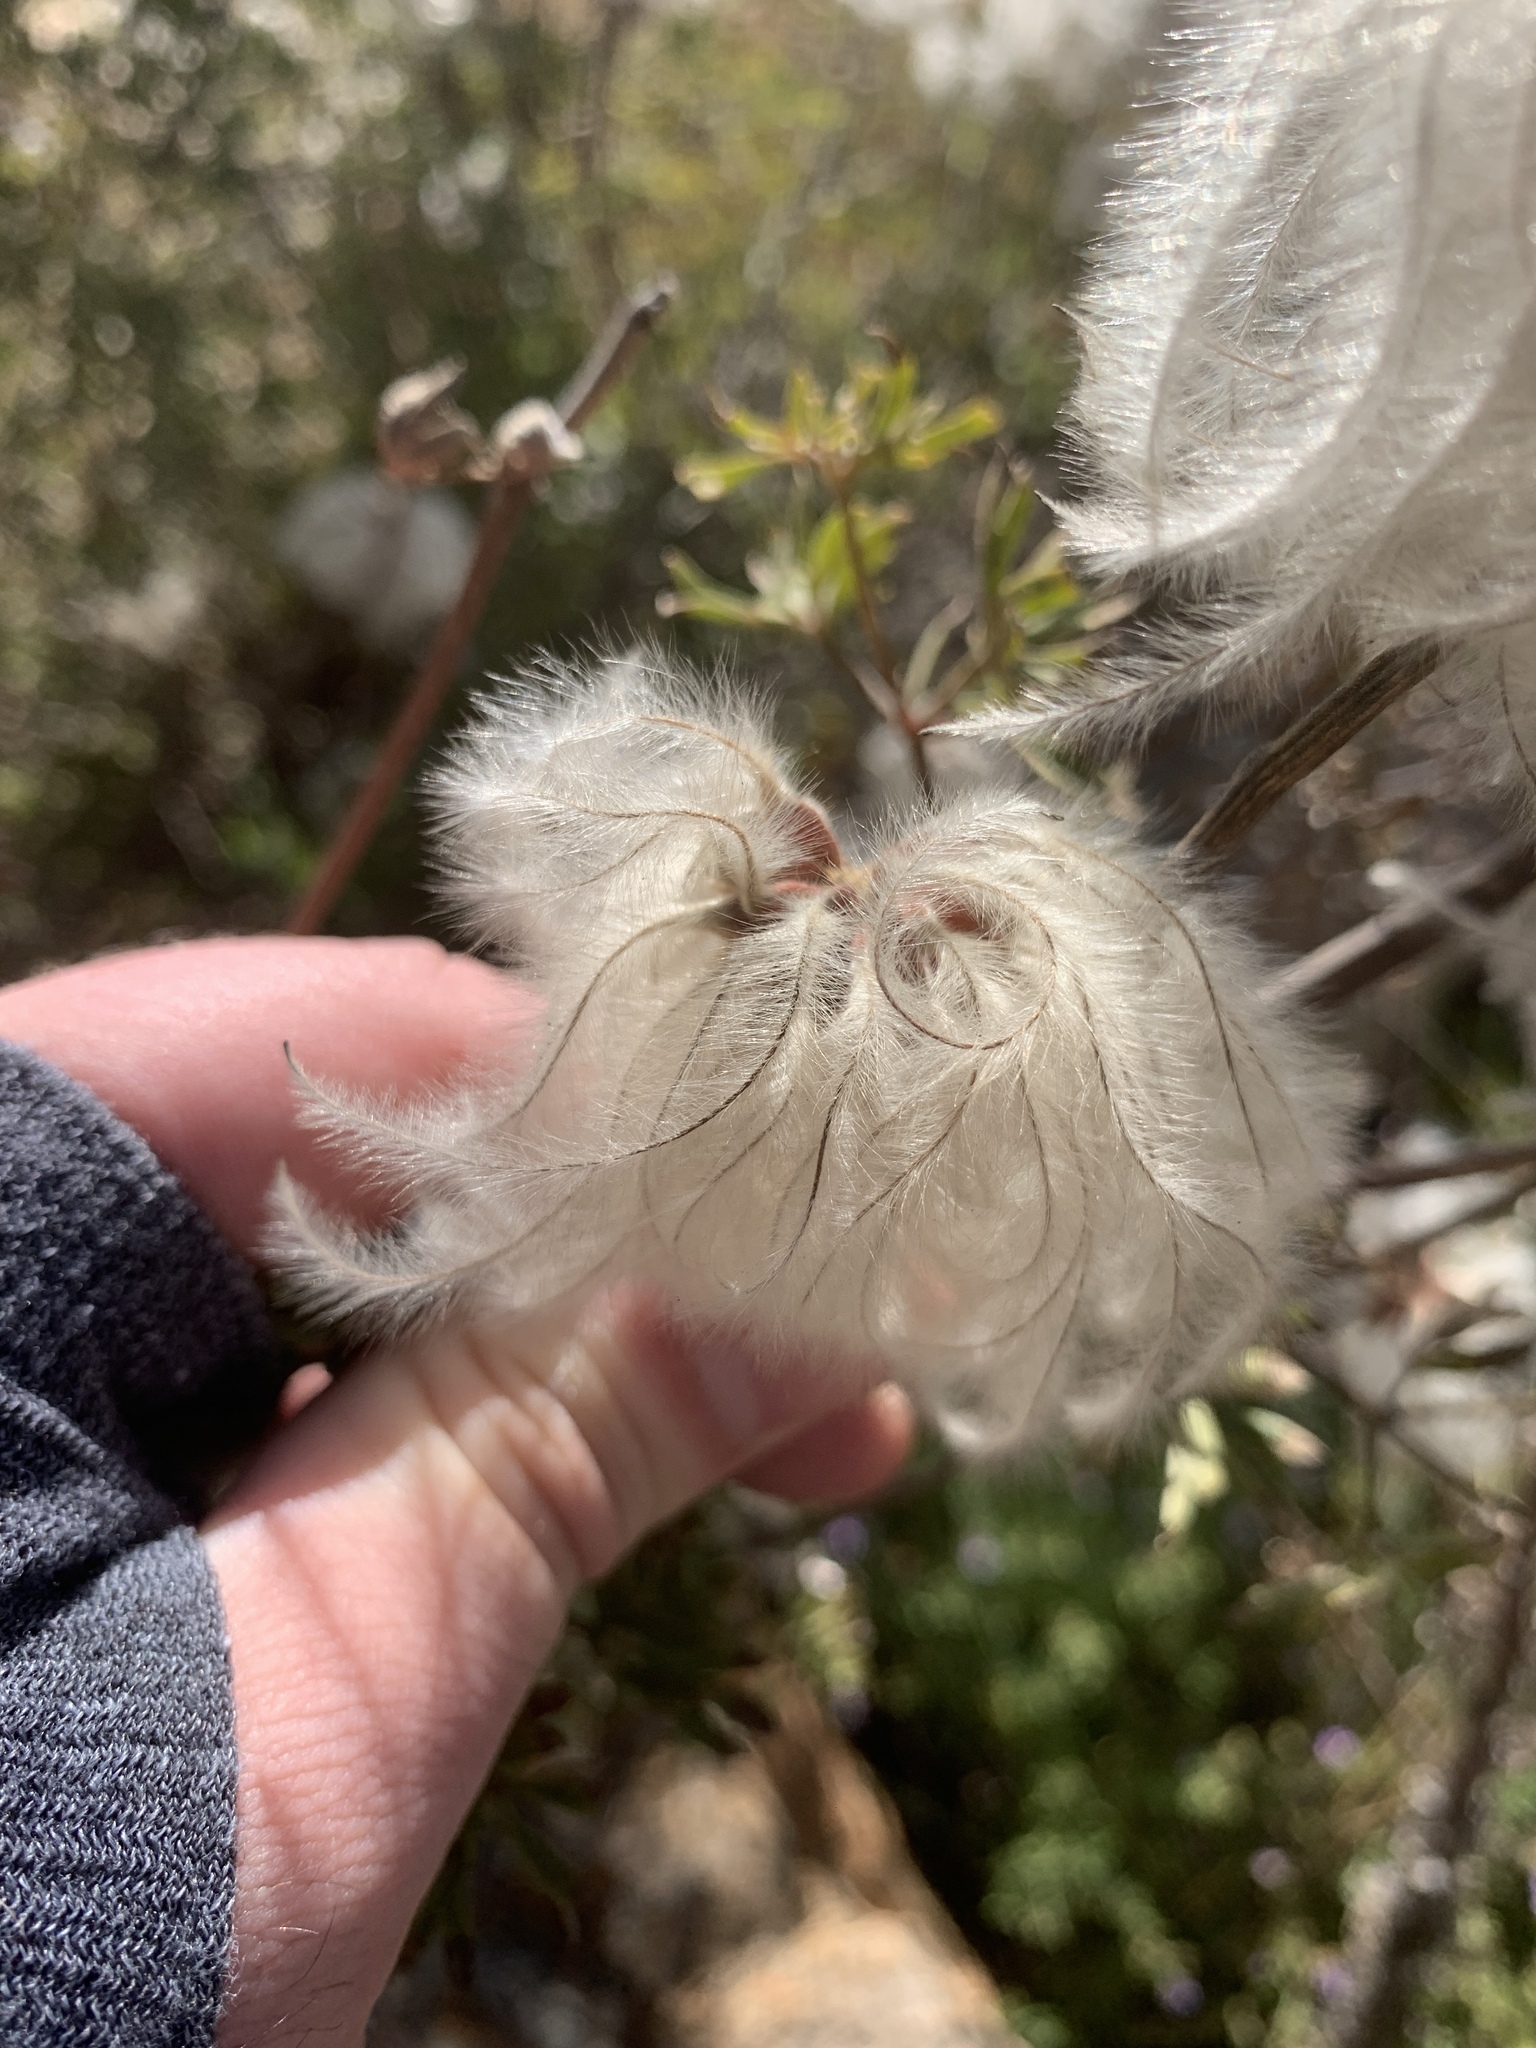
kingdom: Plantae
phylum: Tracheophyta
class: Magnoliopsida
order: Ranunculales
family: Ranunculaceae
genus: Clematis
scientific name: Clematis villosa
